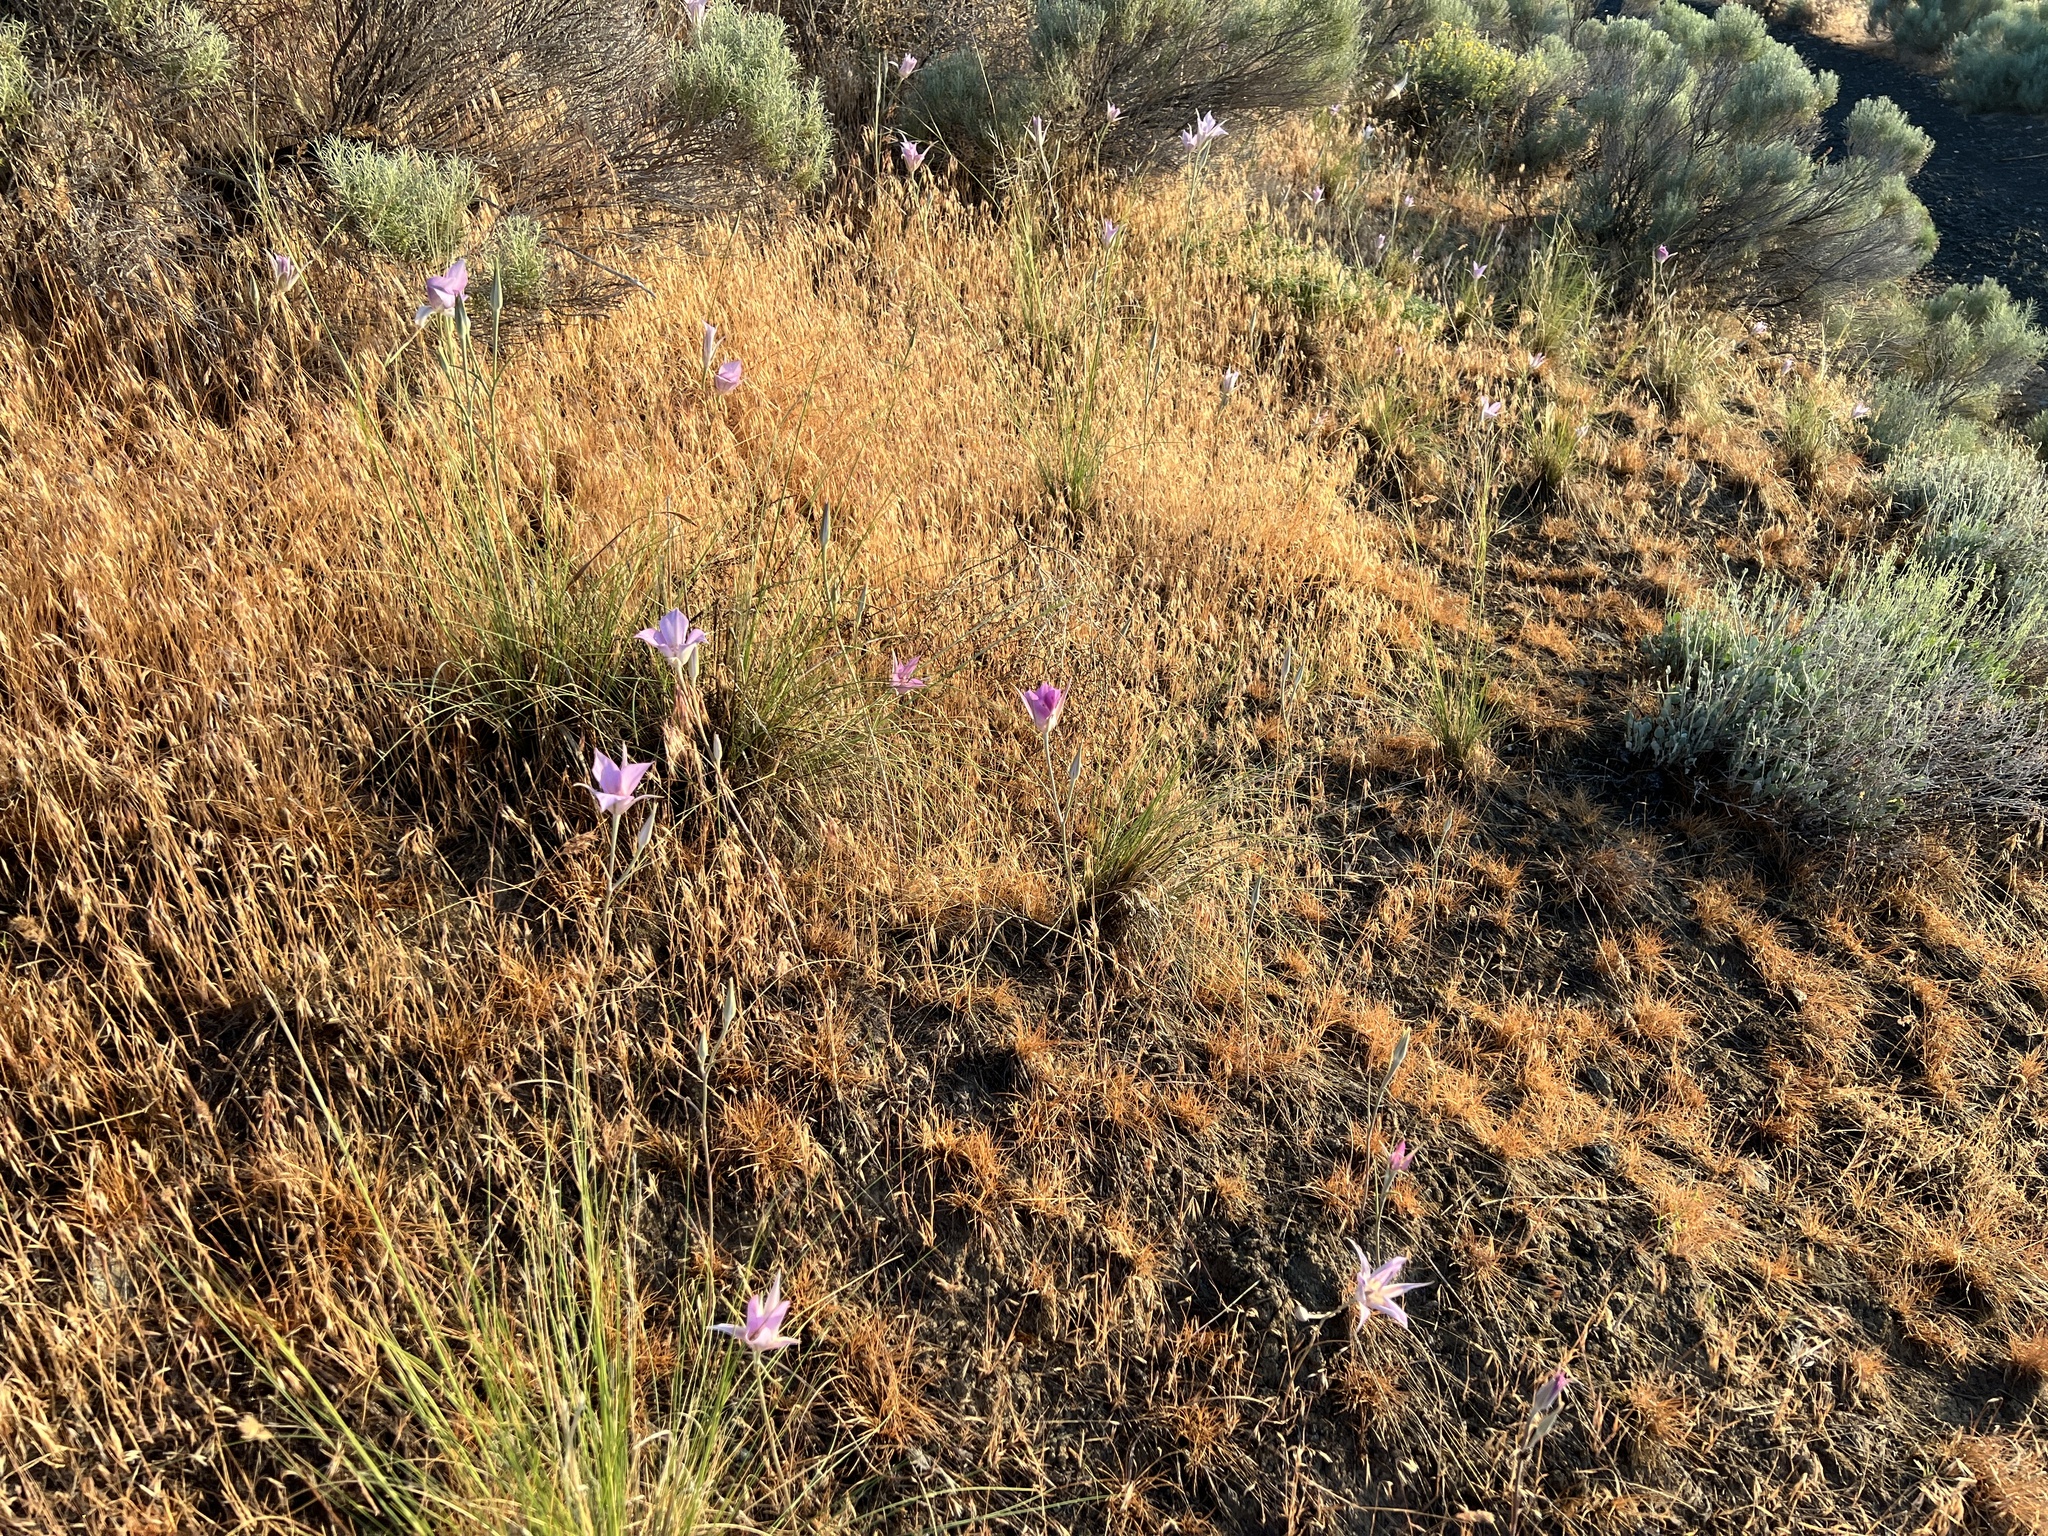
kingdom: Plantae
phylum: Tracheophyta
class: Liliopsida
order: Liliales
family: Liliaceae
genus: Calochortus
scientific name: Calochortus macrocarpus
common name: Green-band mariposa lily
